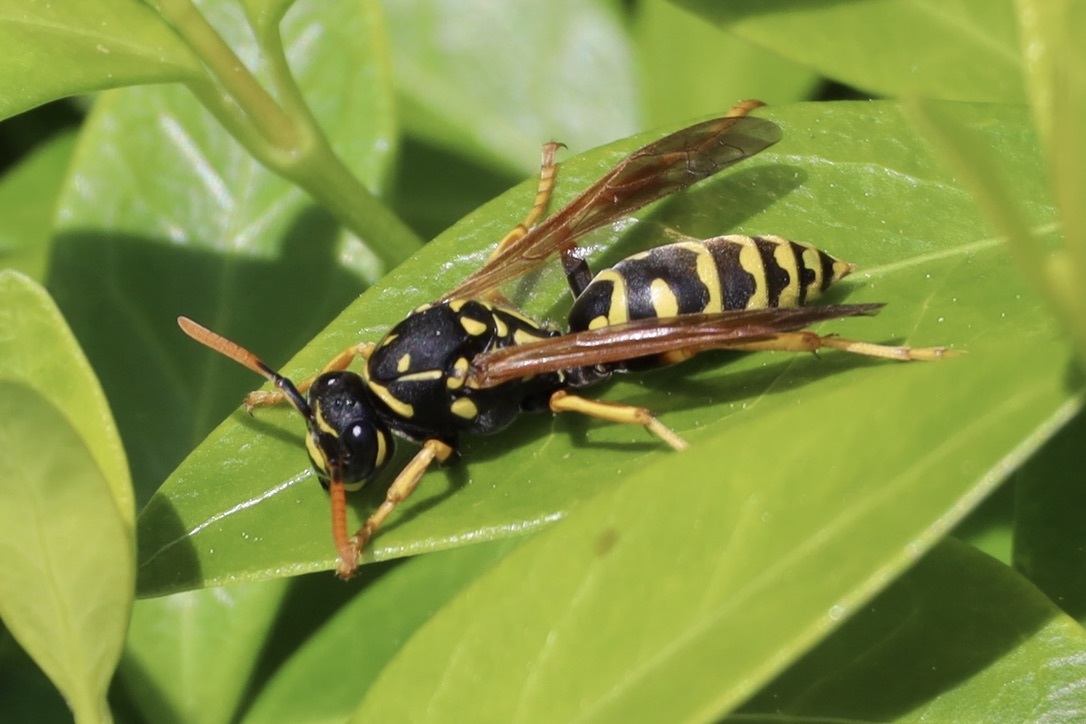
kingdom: Animalia
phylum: Arthropoda
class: Insecta
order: Hymenoptera
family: Eumenidae
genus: Polistes
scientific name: Polistes dominula
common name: Paper wasp
